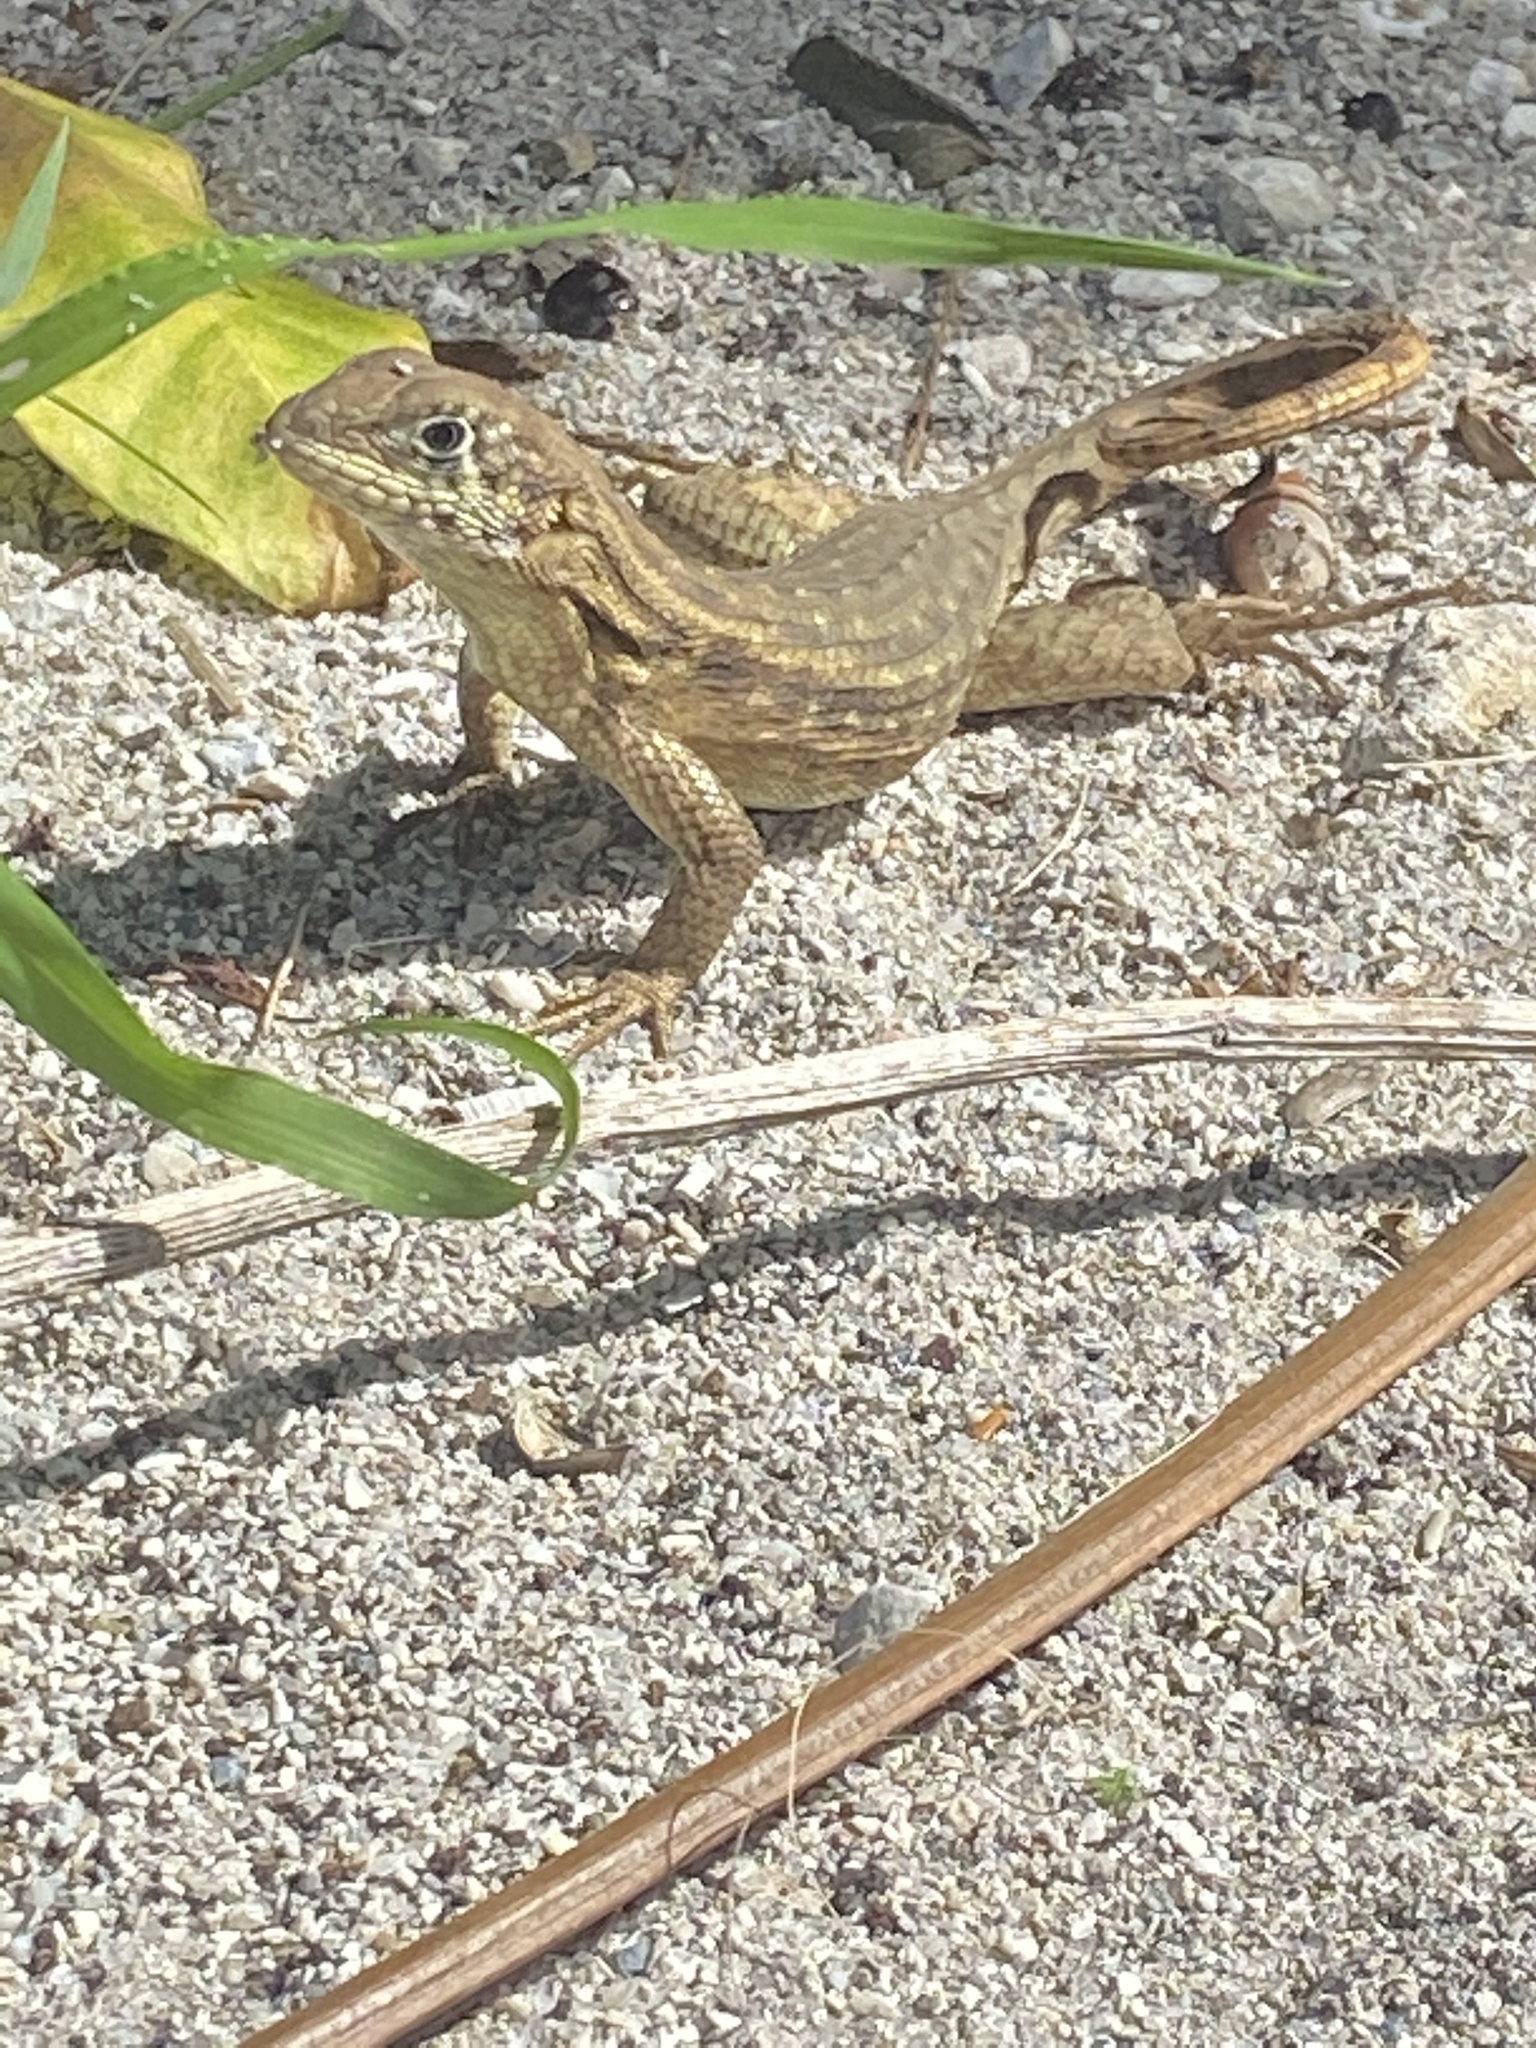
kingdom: Animalia
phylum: Chordata
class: Squamata
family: Leiocephalidae
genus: Leiocephalus
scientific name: Leiocephalus carinatus
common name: Northern curly-tailed lizard
